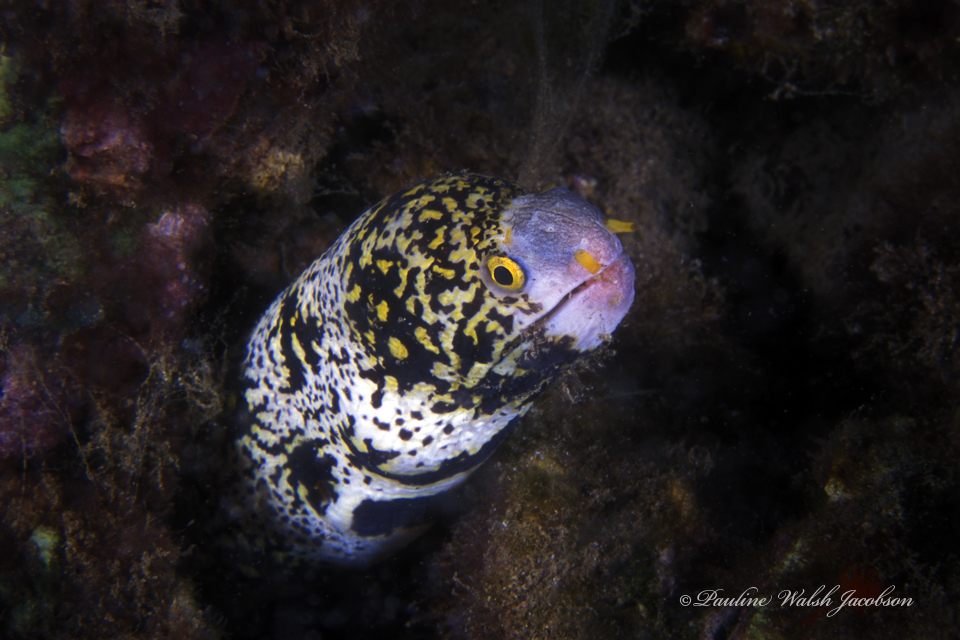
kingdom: Animalia
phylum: Chordata
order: Anguilliformes
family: Muraenidae
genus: Echidna
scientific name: Echidna nebulosa
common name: Snowflake moray
